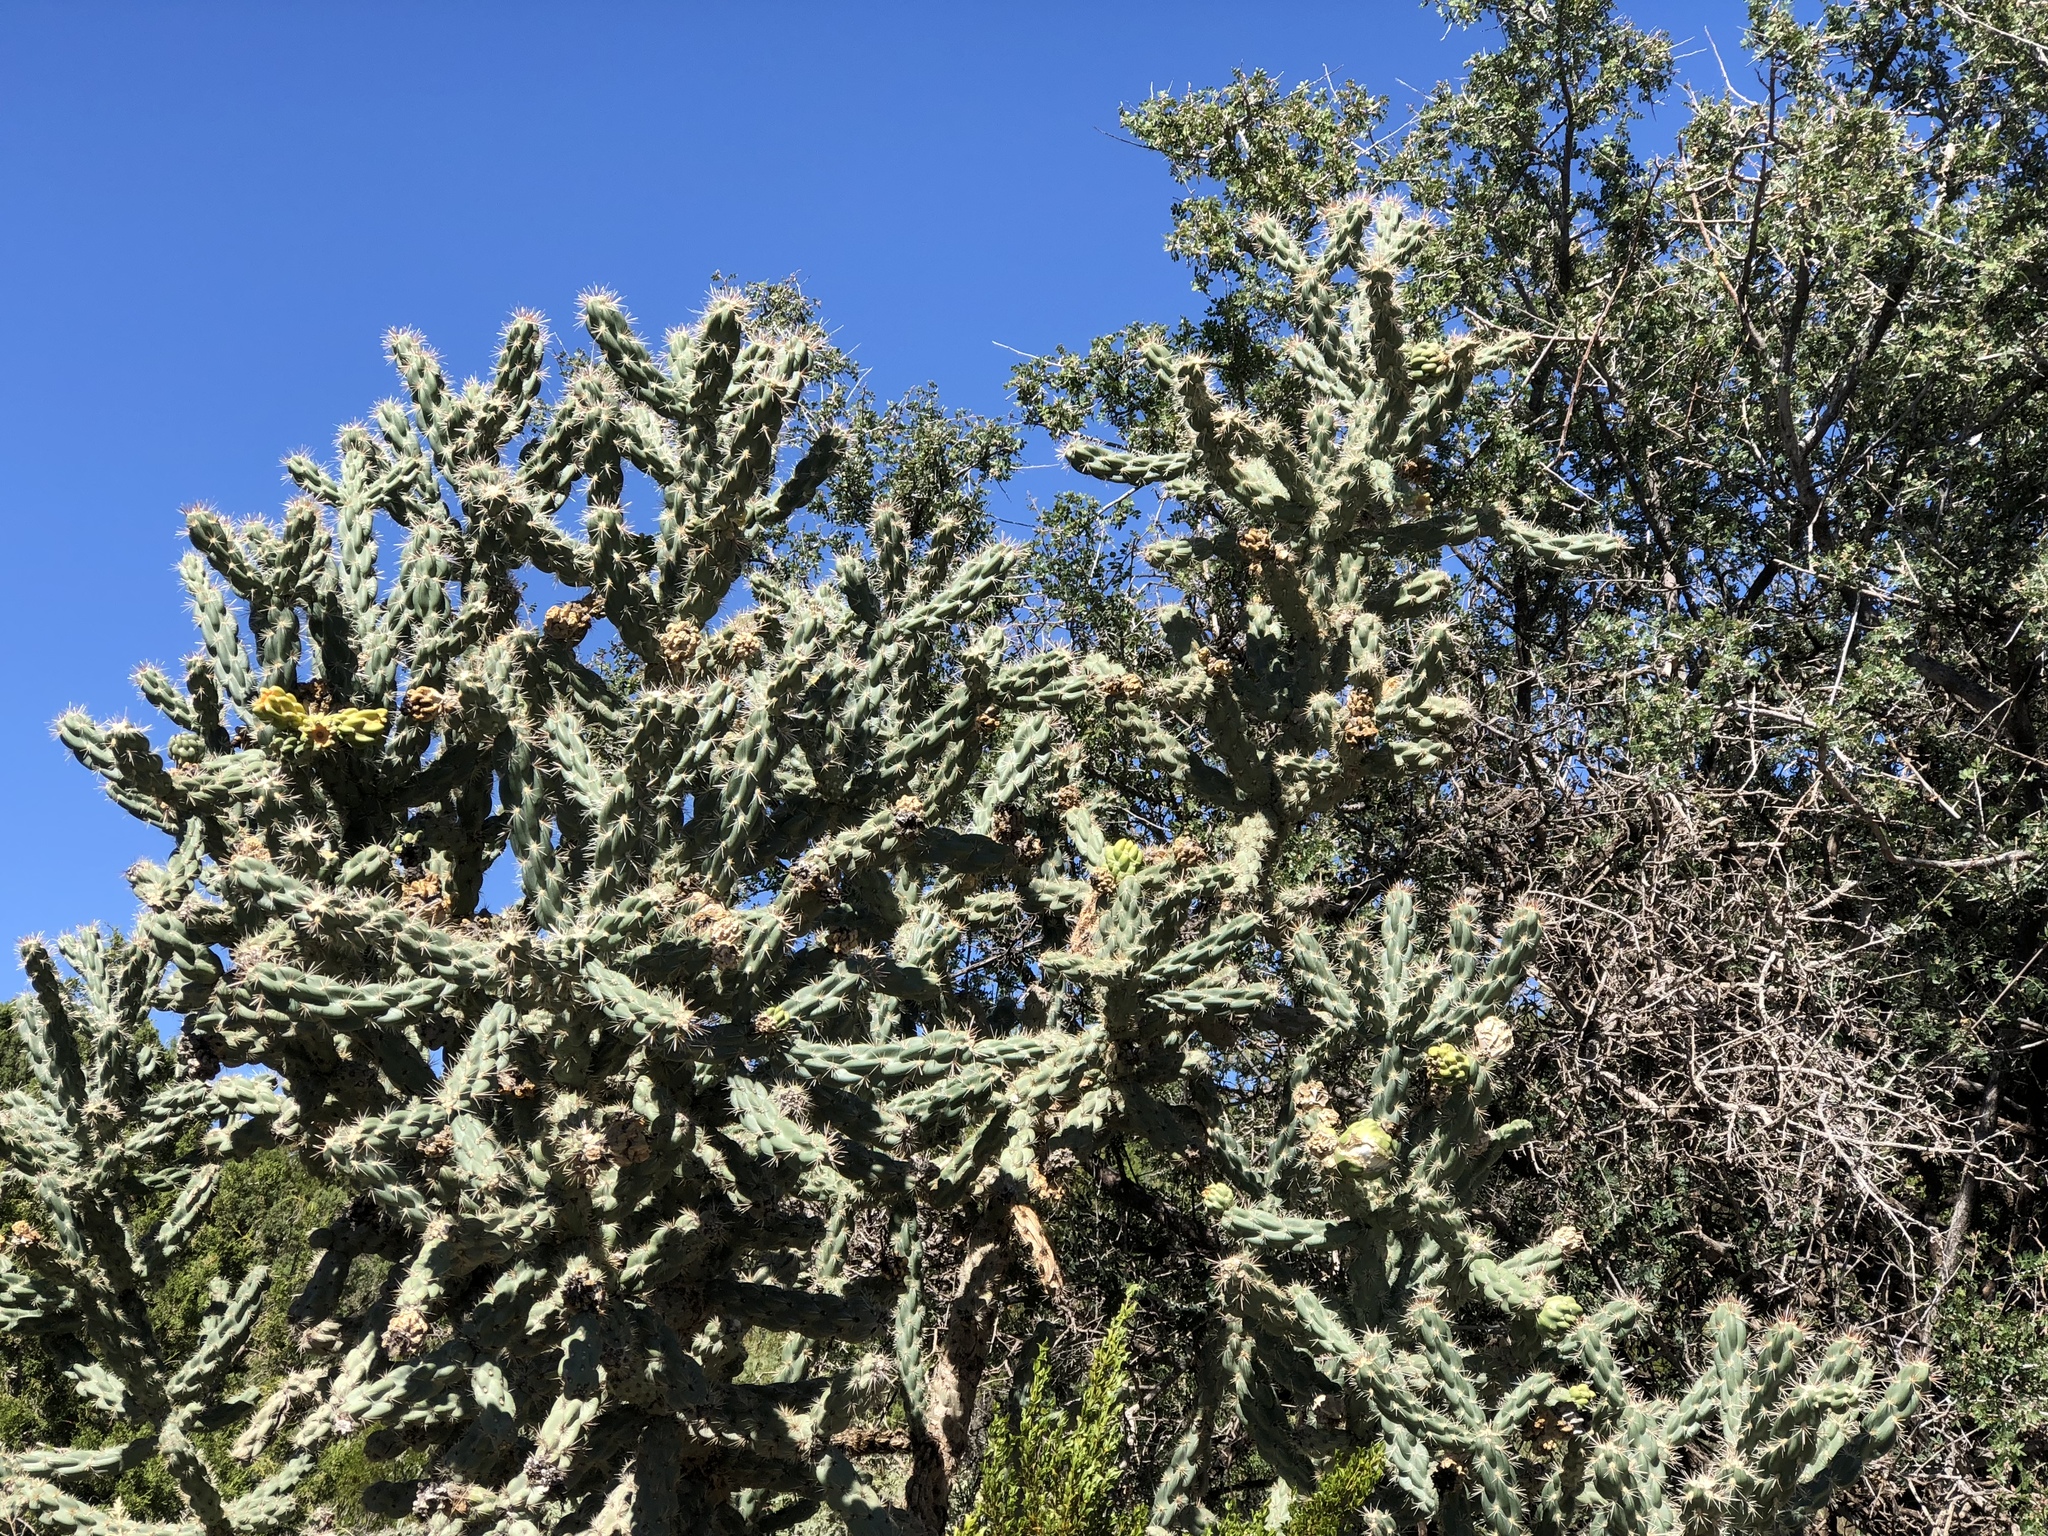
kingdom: Plantae
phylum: Tracheophyta
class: Magnoliopsida
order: Caryophyllales
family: Cactaceae
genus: Cylindropuntia
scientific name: Cylindropuntia imbricata
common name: Candelabrum cactus
